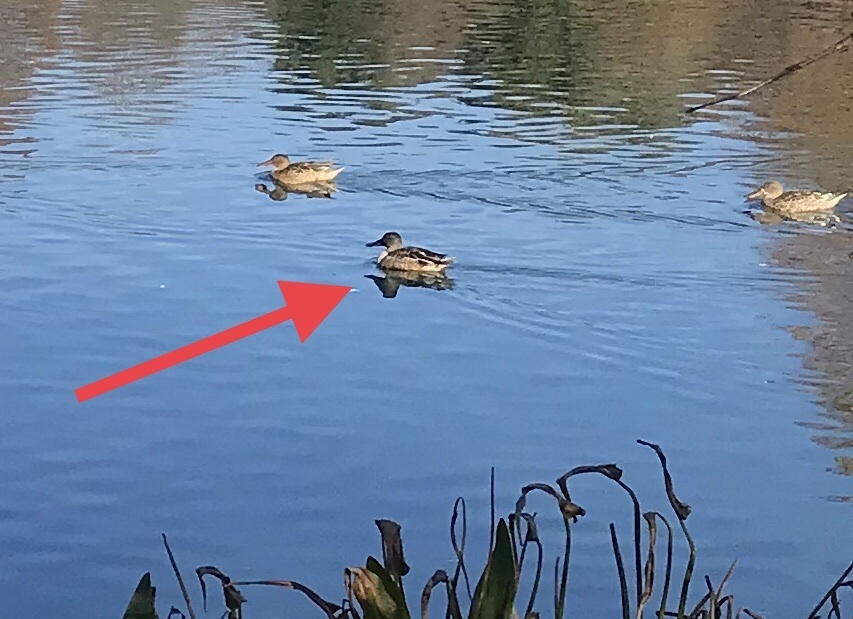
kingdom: Animalia
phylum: Chordata
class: Aves
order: Anseriformes
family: Anatidae
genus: Spatula
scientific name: Spatula clypeata
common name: Northern shoveler
